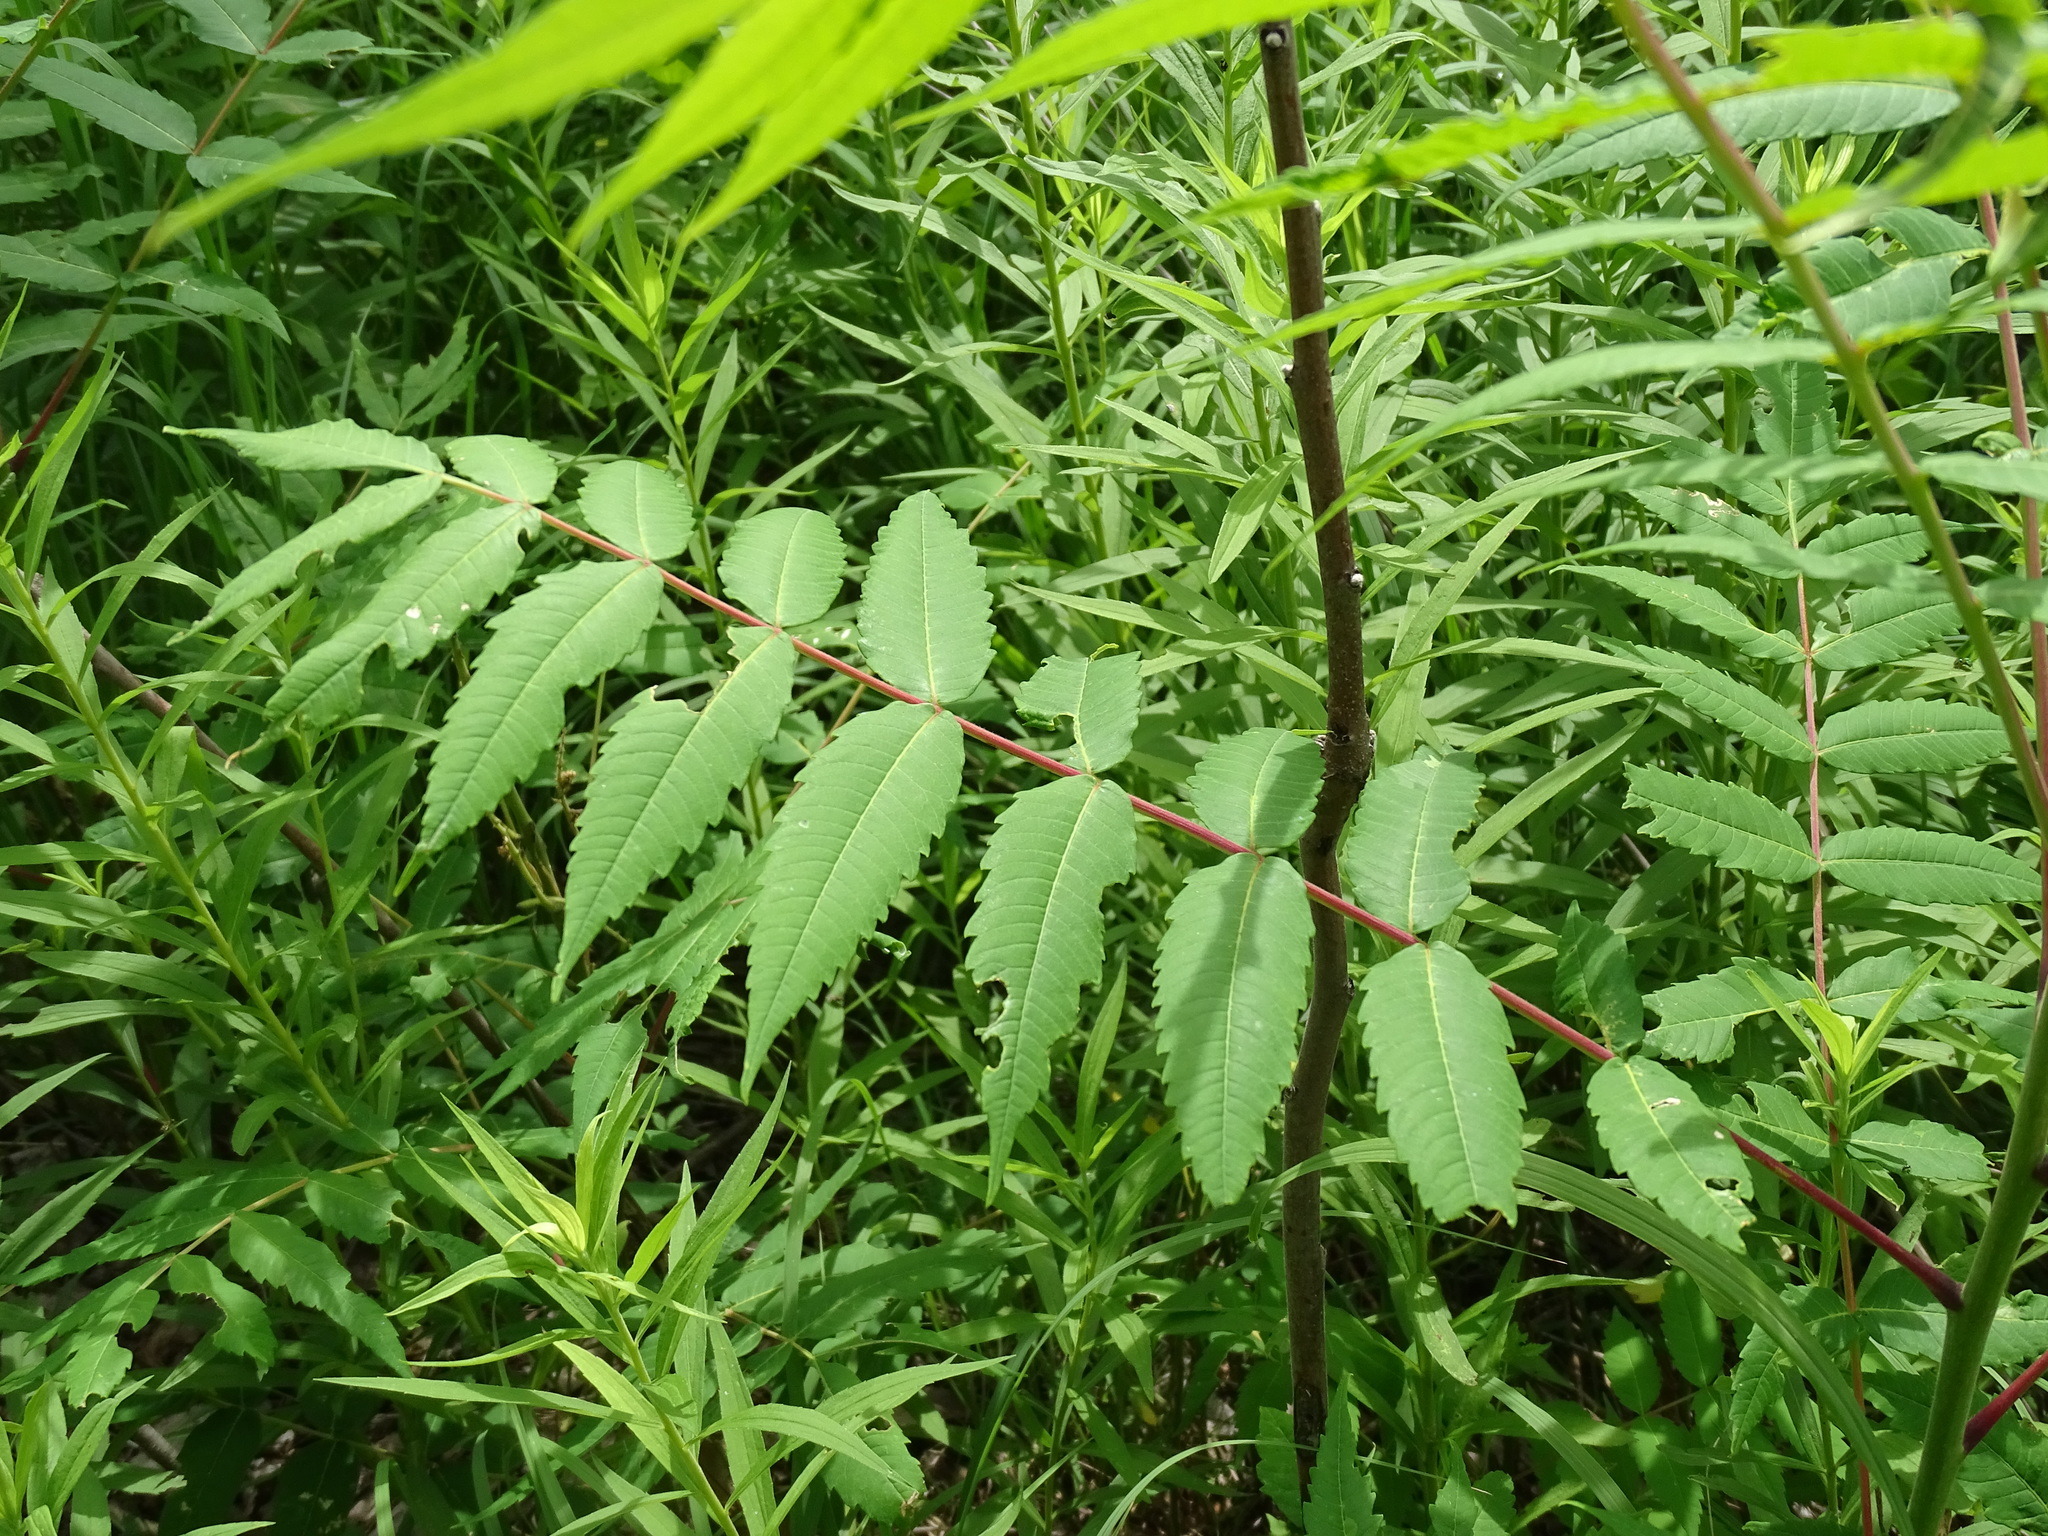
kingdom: Plantae
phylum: Tracheophyta
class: Magnoliopsida
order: Sapindales
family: Anacardiaceae
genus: Rhus
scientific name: Rhus glabra
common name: Scarlet sumac
